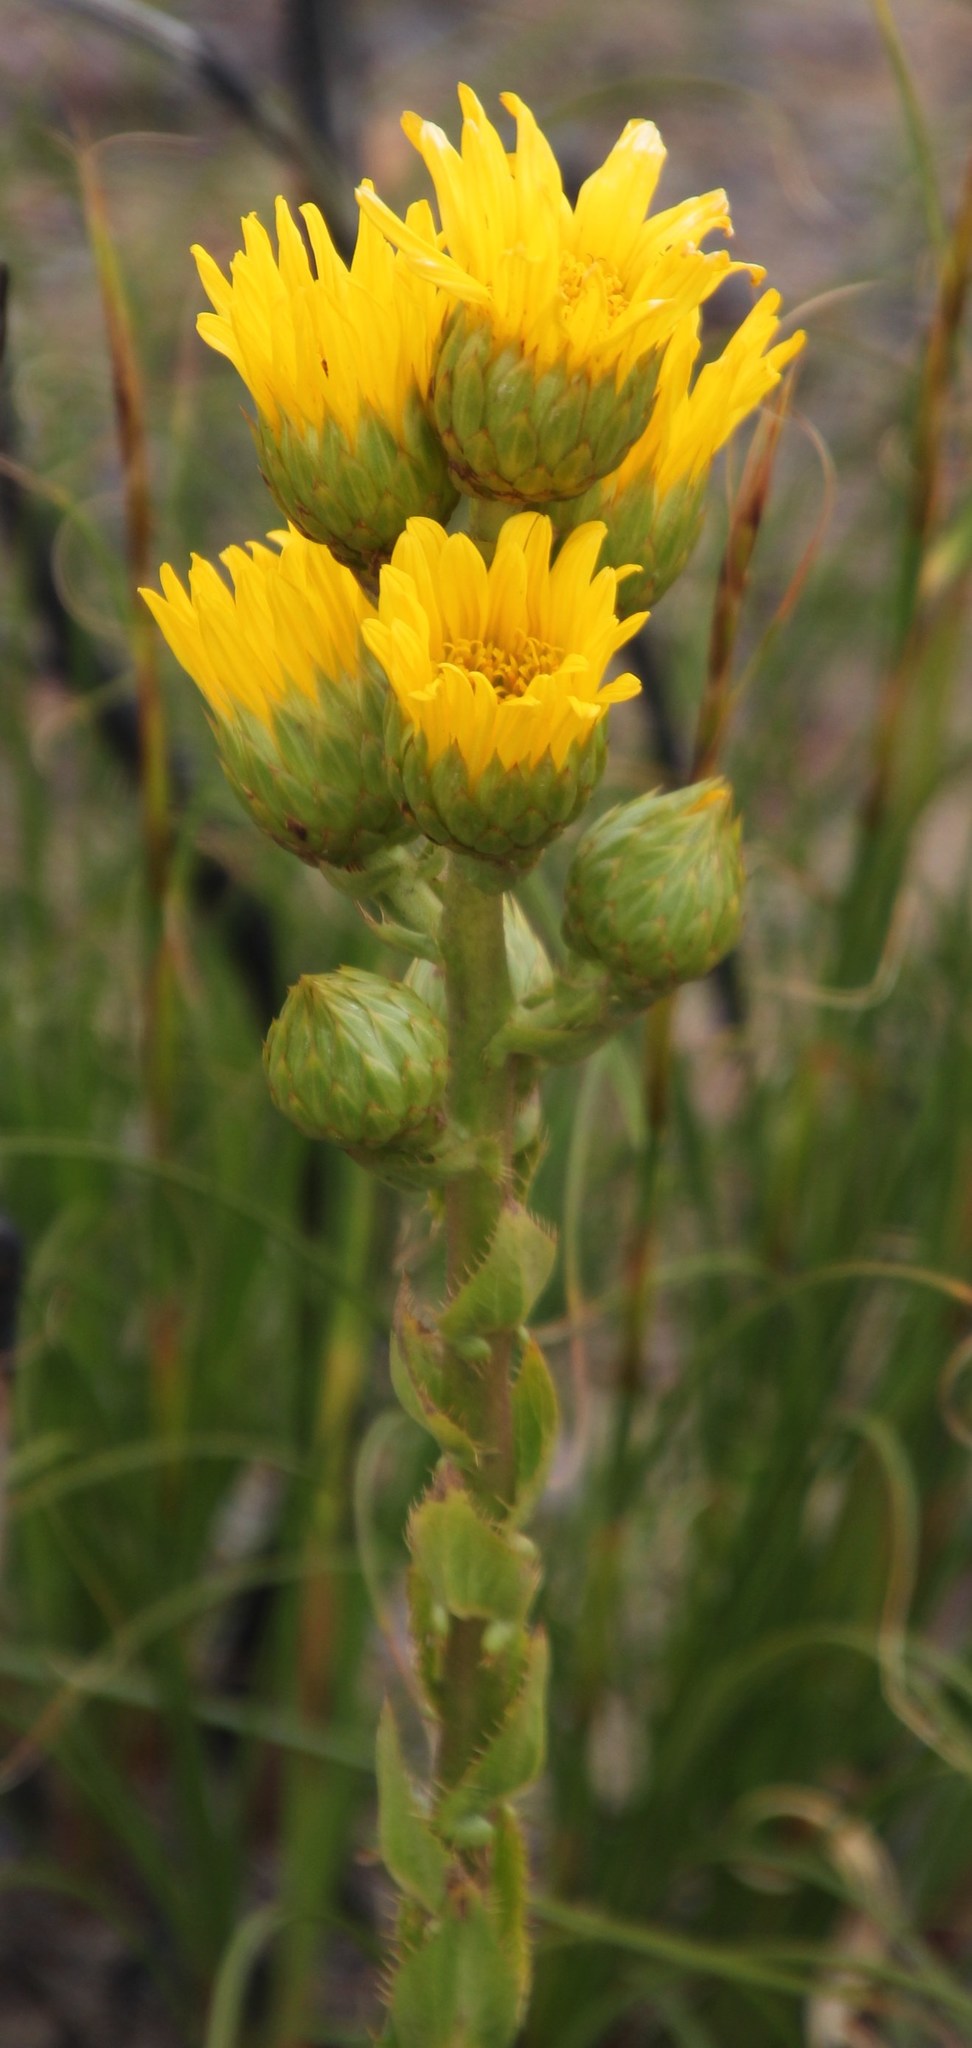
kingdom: Plantae
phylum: Tracheophyta
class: Magnoliopsida
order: Asterales
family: Asteraceae
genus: Berkheya
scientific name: Berkheya herbacea
